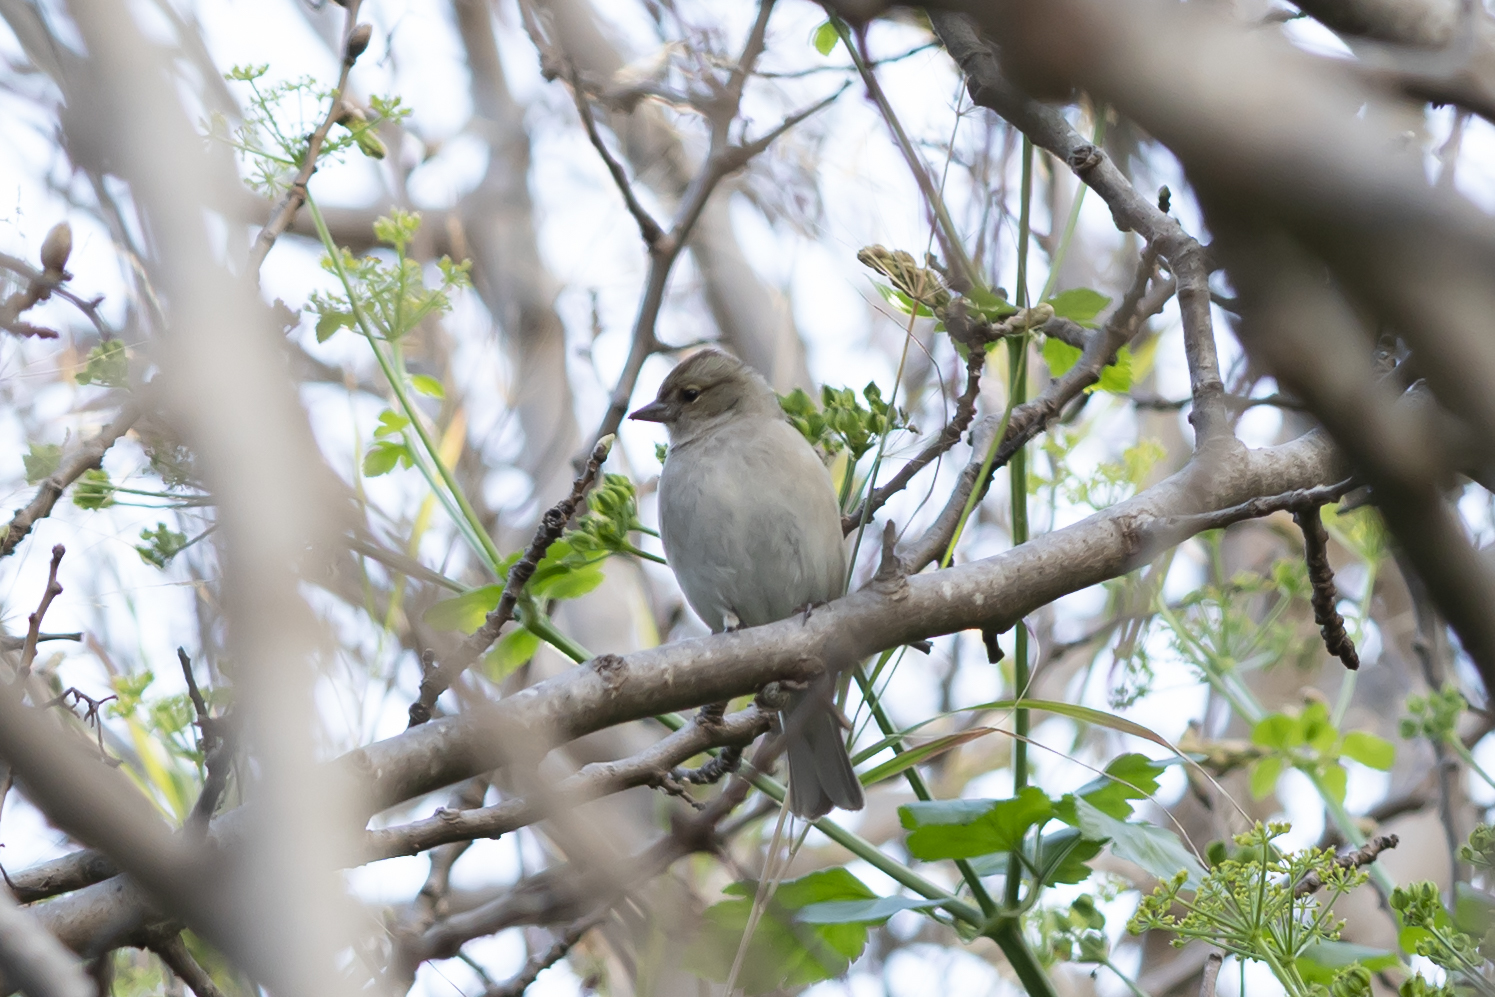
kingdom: Animalia
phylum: Chordata
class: Aves
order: Passeriformes
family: Fringillidae
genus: Fringilla
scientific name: Fringilla coelebs
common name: Common chaffinch
